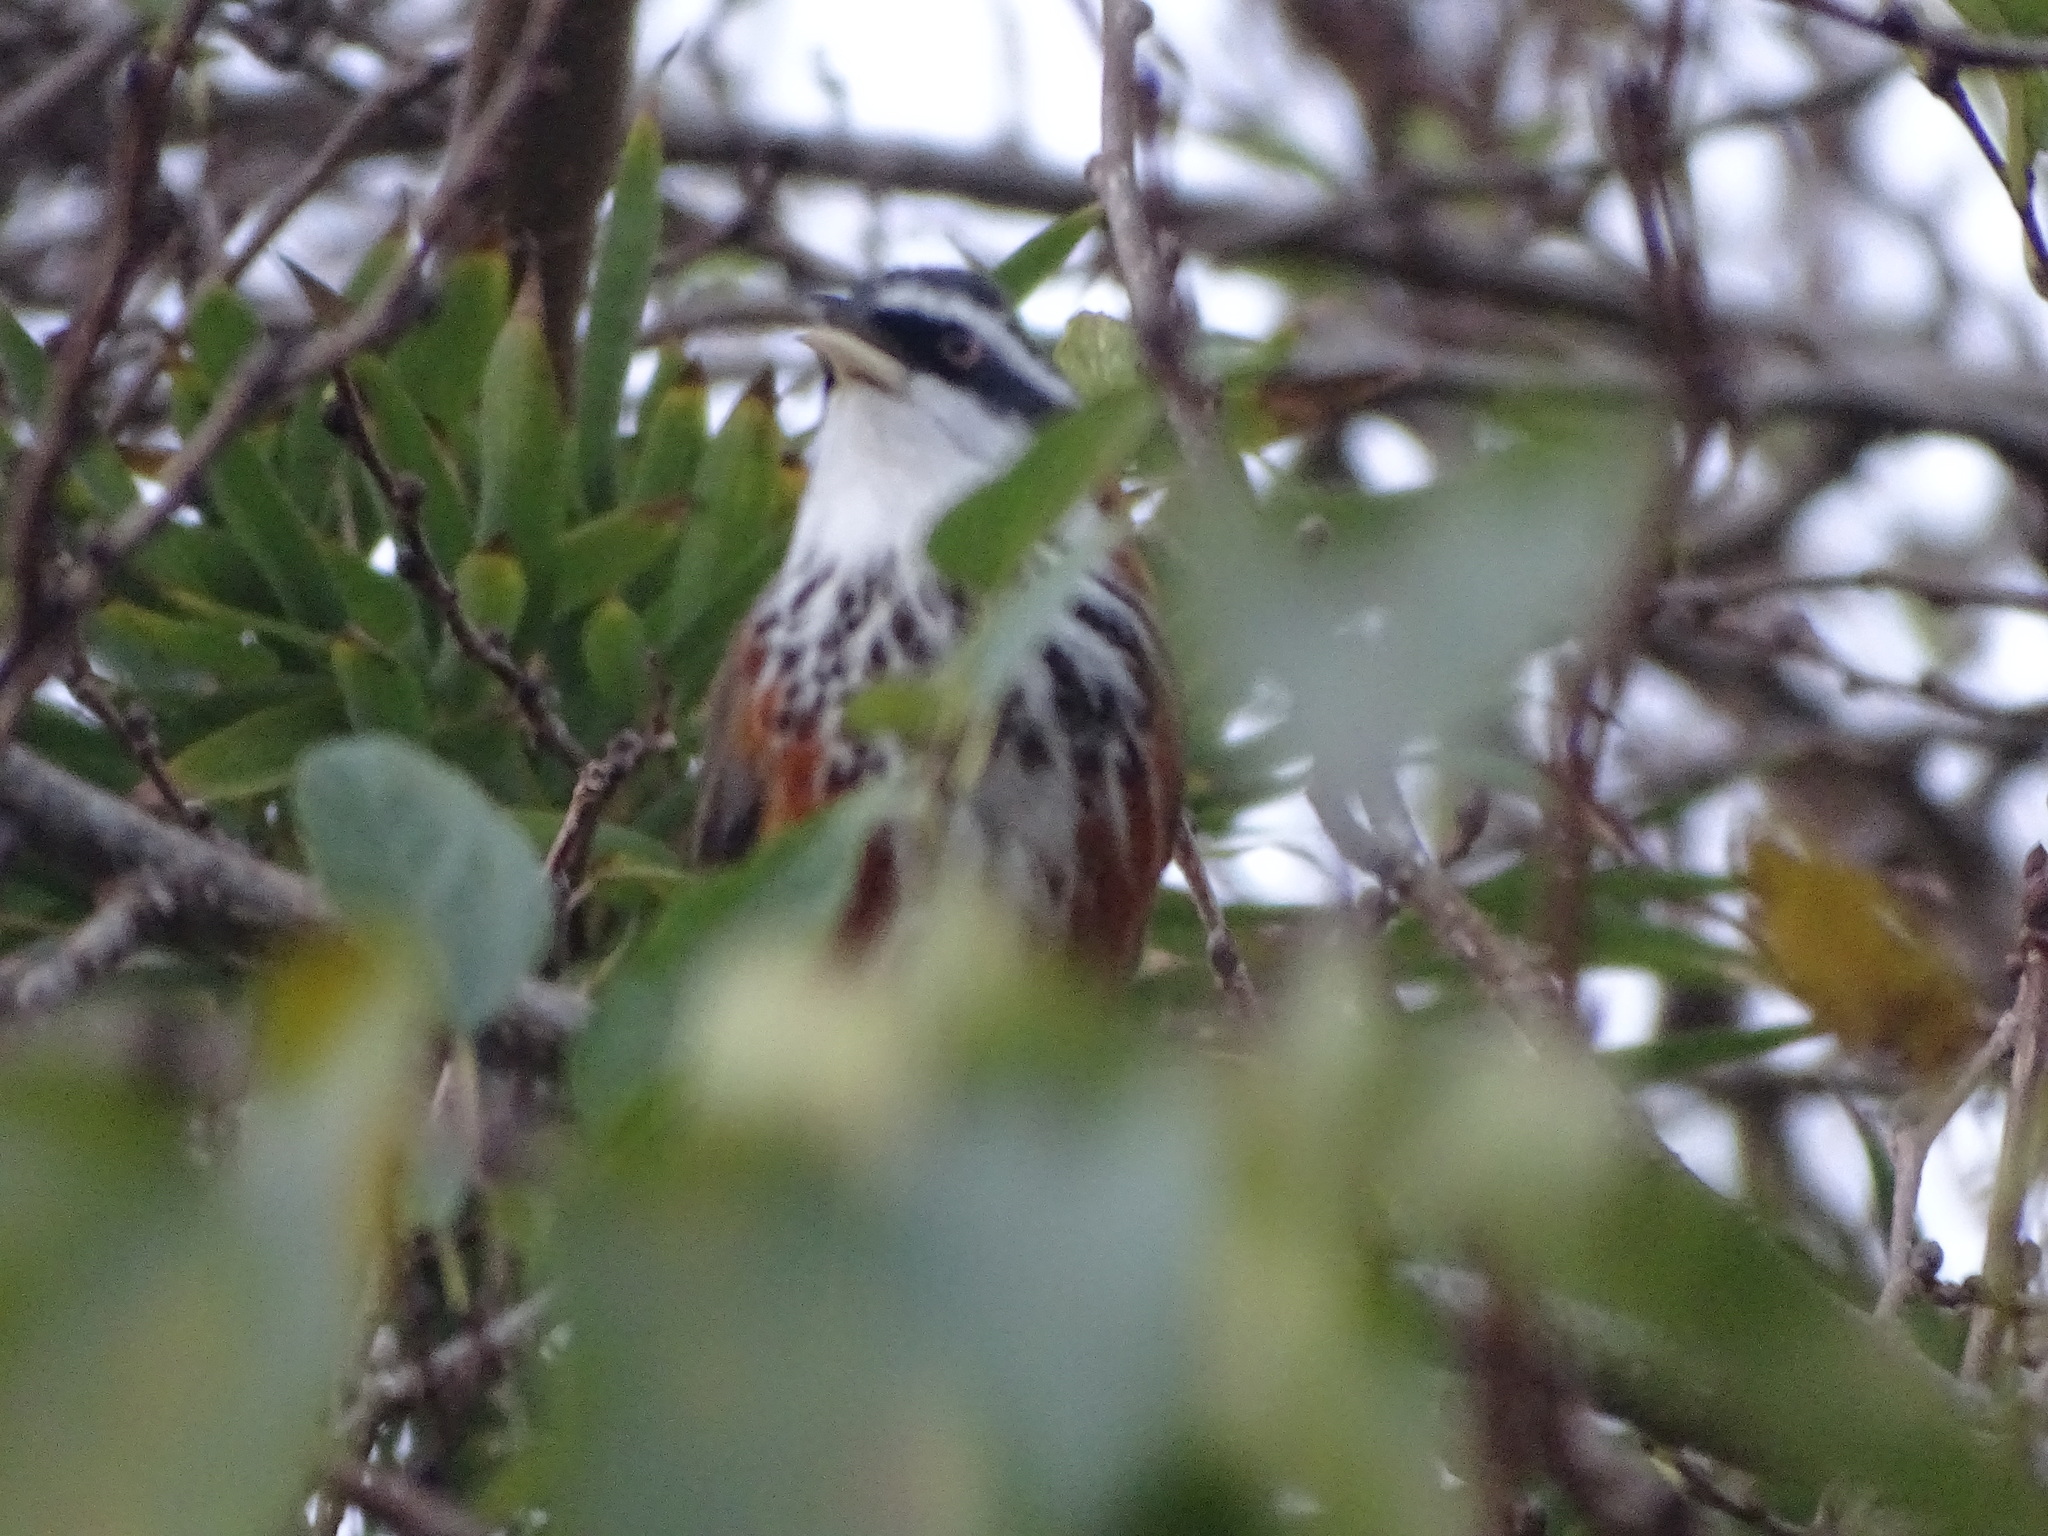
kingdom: Animalia
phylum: Chordata
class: Aves
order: Passeriformes
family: Timaliidae
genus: Pomatorhinus
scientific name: Pomatorhinus musicus
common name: Taiwan scimitar-babbler
